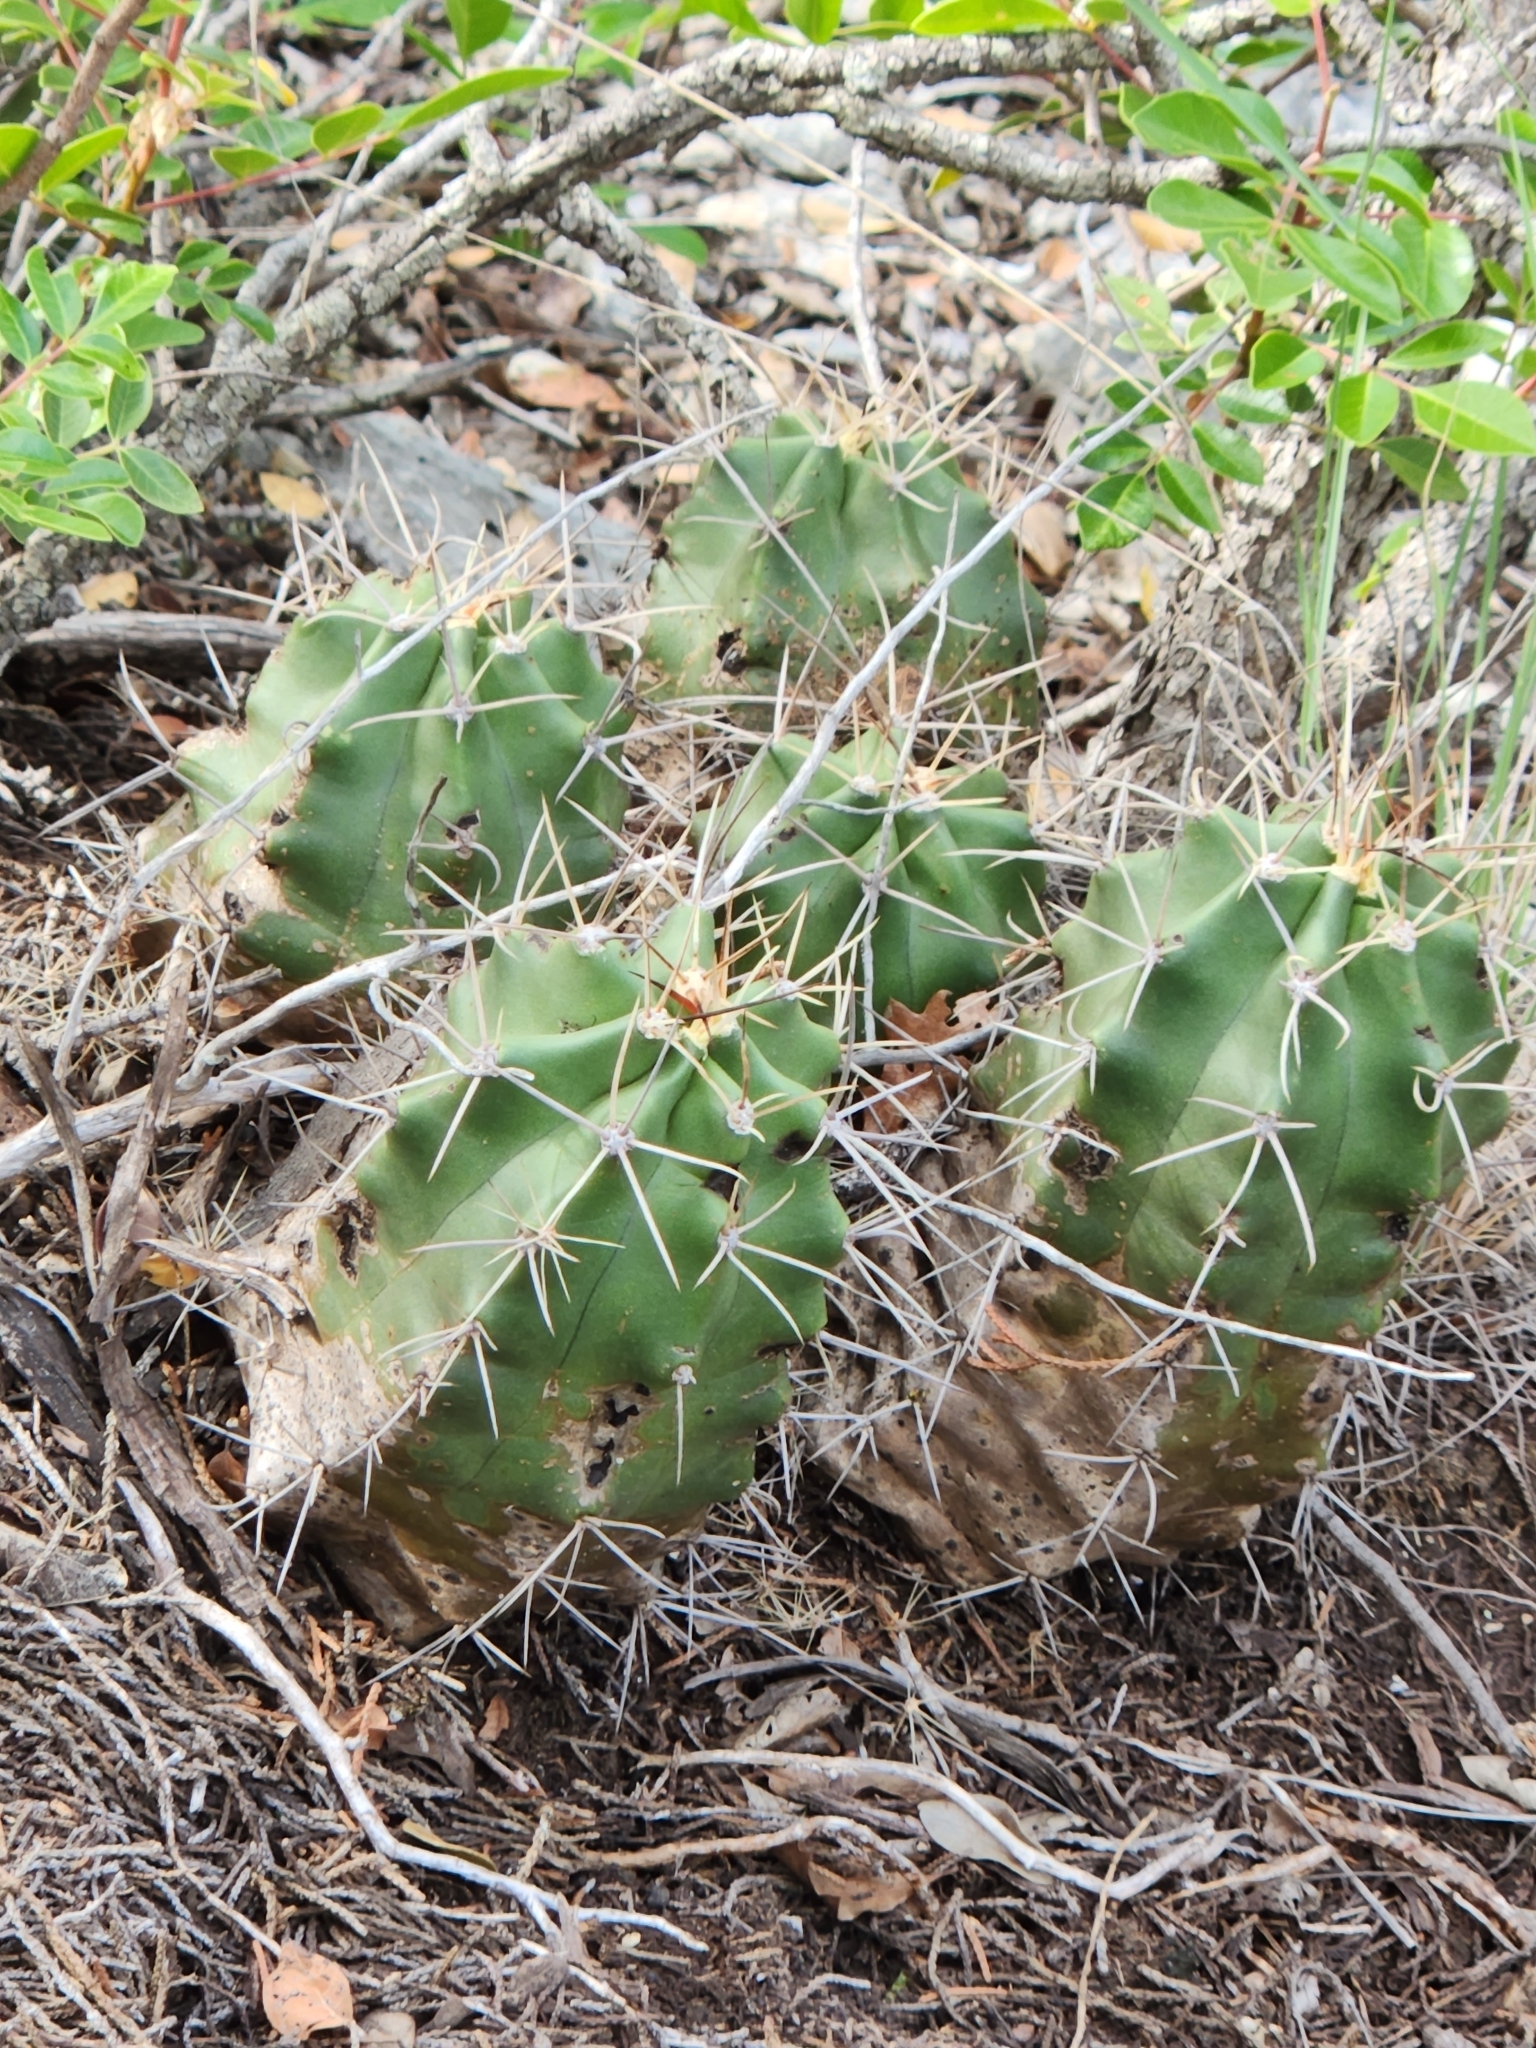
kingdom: Plantae
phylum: Tracheophyta
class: Magnoliopsida
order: Caryophyllales
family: Cactaceae
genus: Echinocereus
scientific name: Echinocereus coccineus
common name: Scarlet hedgehog cactus
